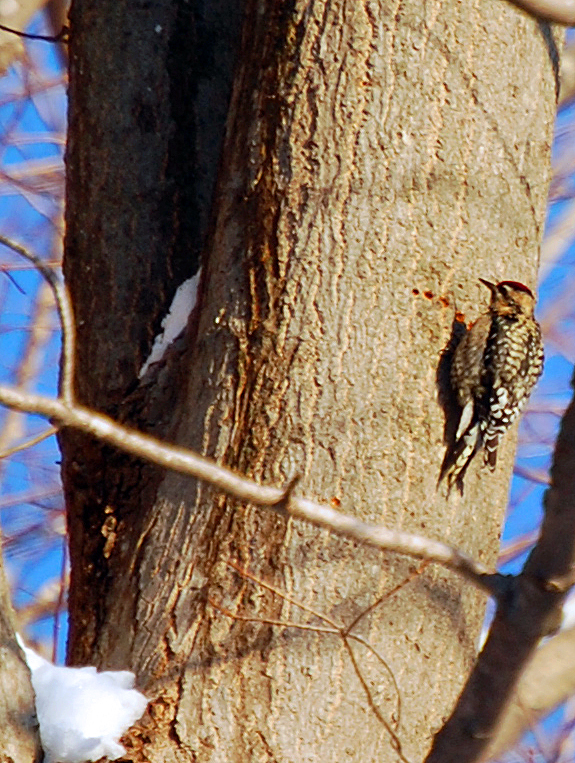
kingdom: Animalia
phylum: Chordata
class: Aves
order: Piciformes
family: Picidae
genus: Sphyrapicus
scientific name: Sphyrapicus varius
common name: Yellow-bellied sapsucker
